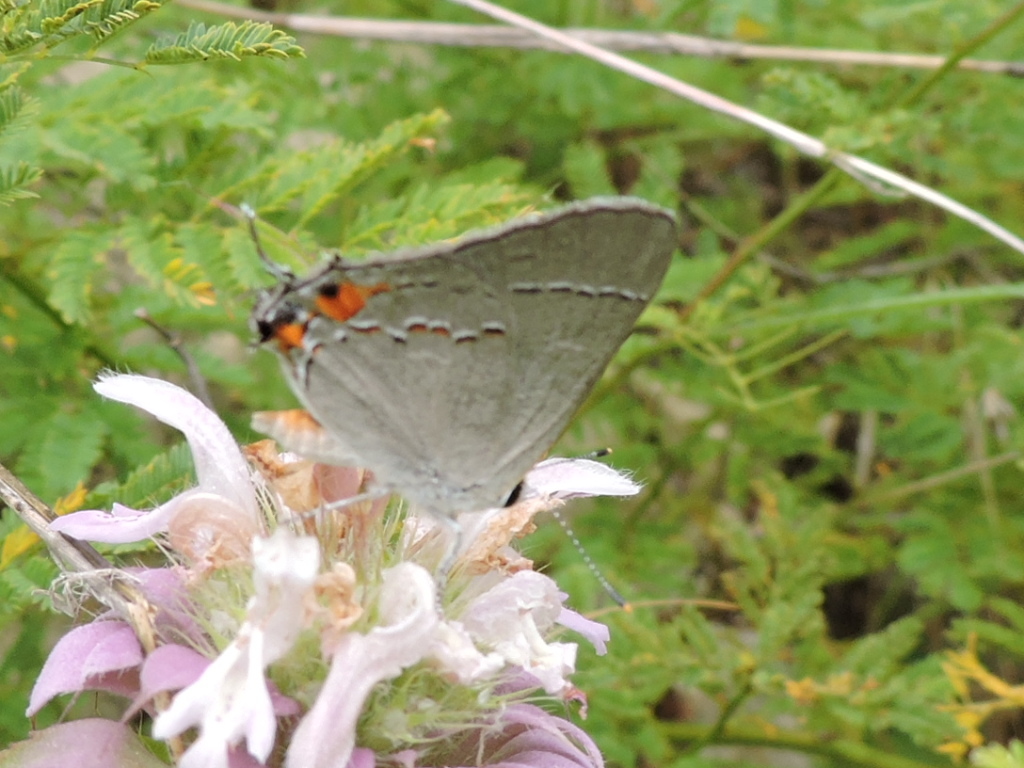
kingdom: Animalia
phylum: Arthropoda
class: Insecta
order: Lepidoptera
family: Lycaenidae
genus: Strymon
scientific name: Strymon melinus
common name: Gray hairstreak
